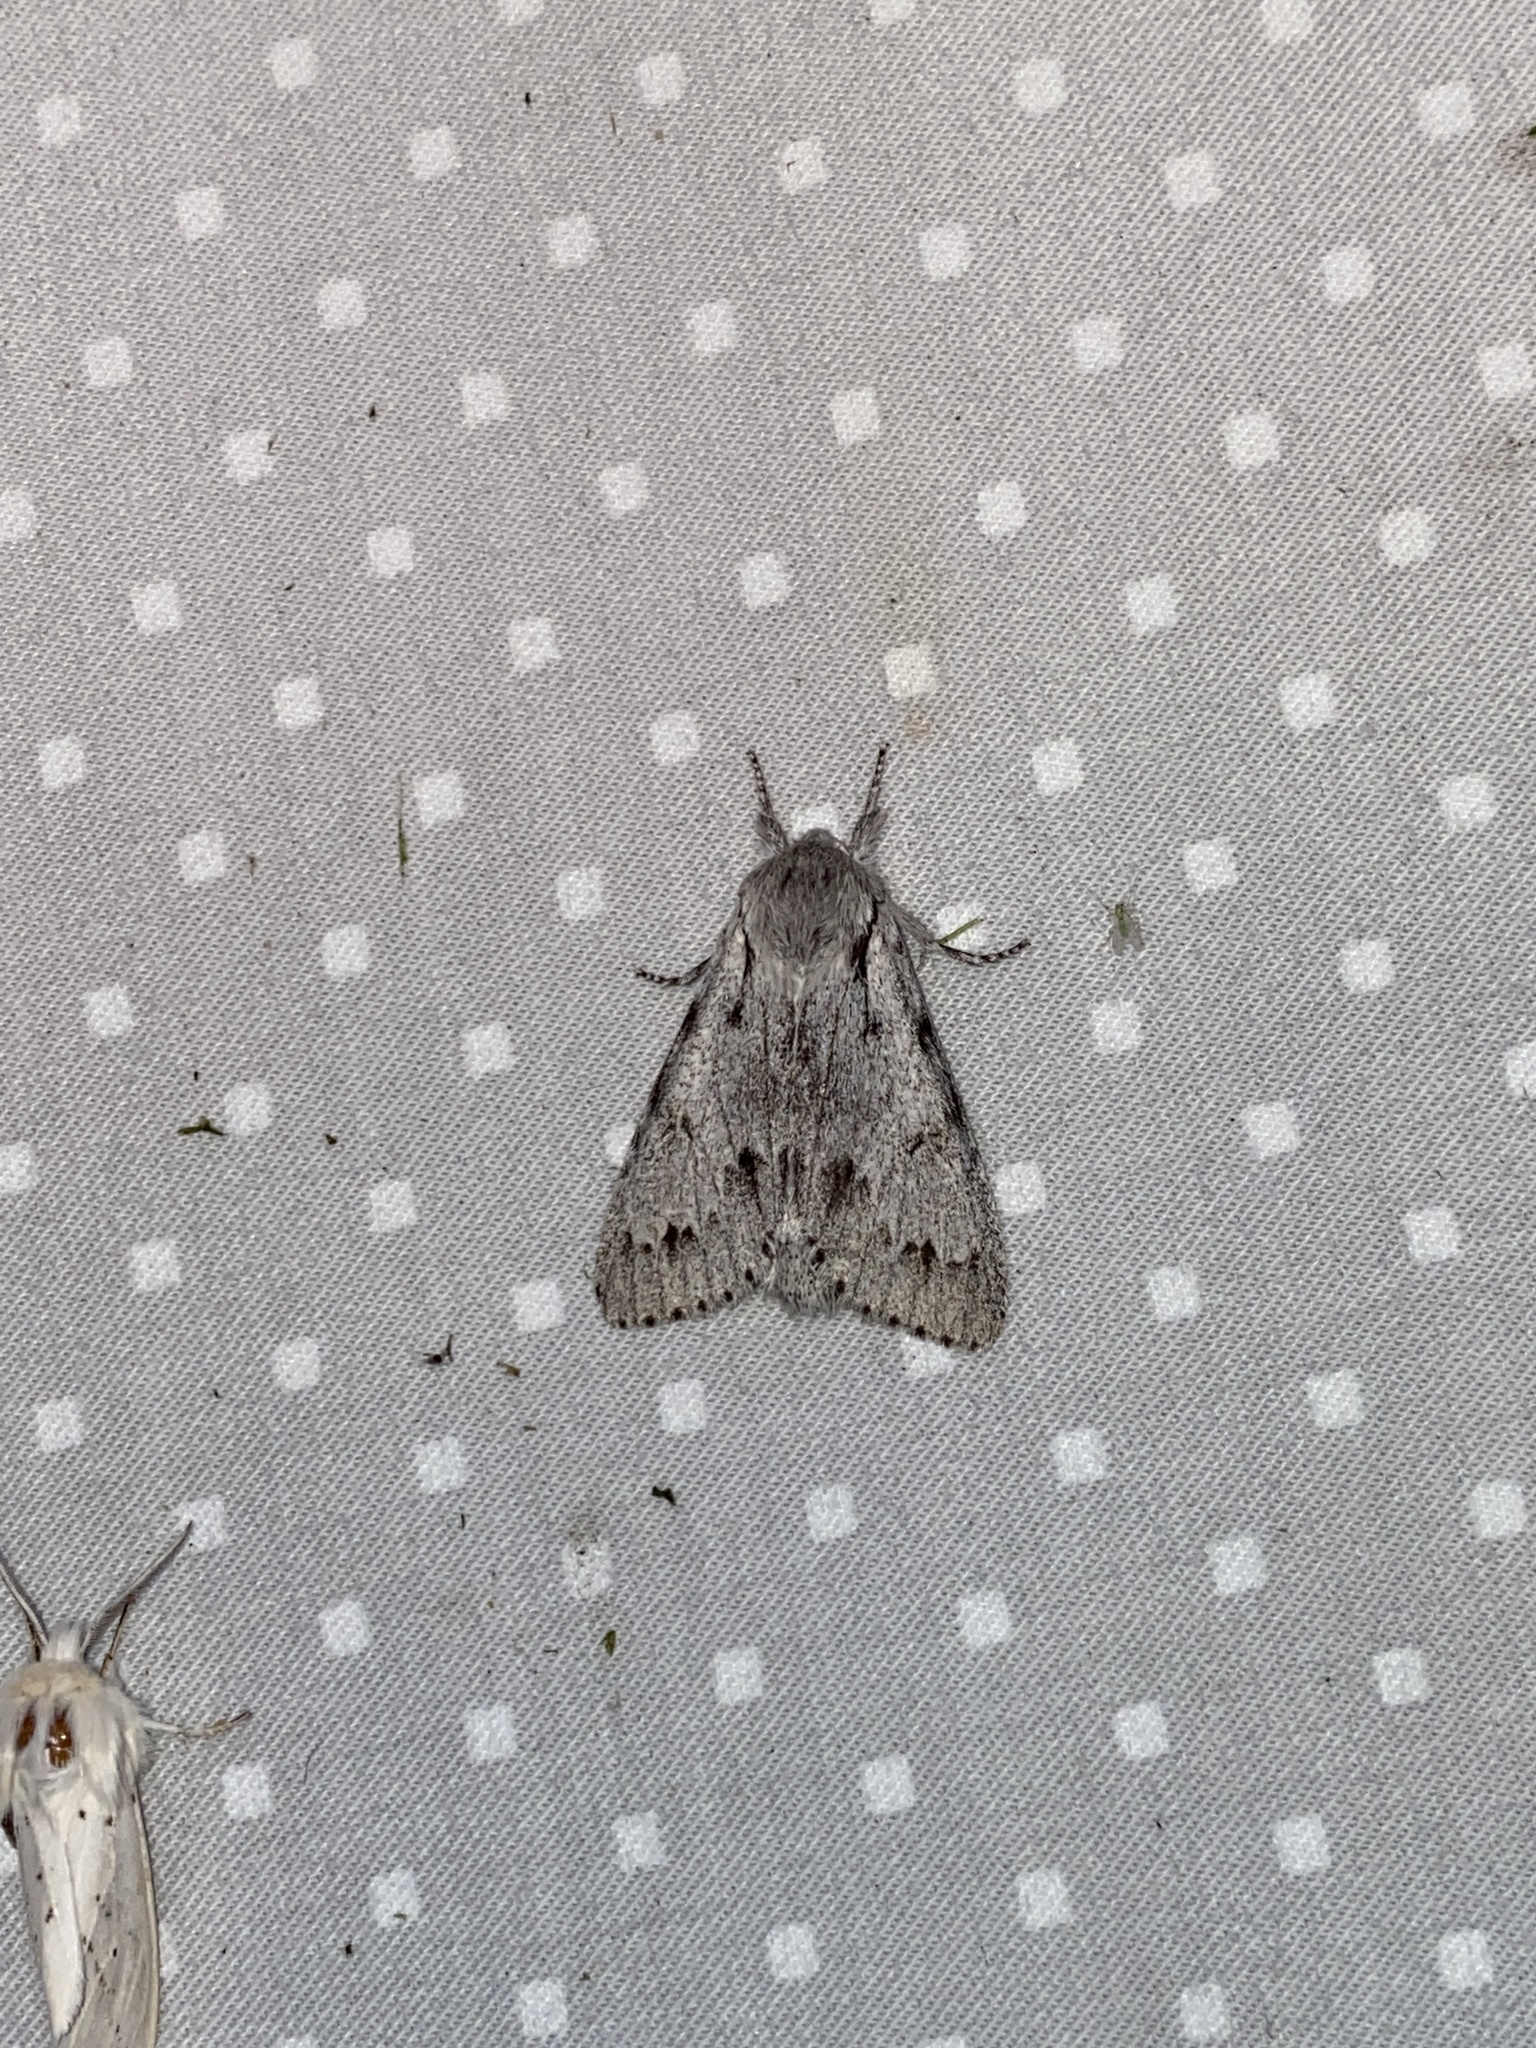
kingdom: Animalia
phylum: Arthropoda
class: Insecta
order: Lepidoptera
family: Noctuidae
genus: Acronicta
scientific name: Acronicta lepusculina
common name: Cottonwood dagger
